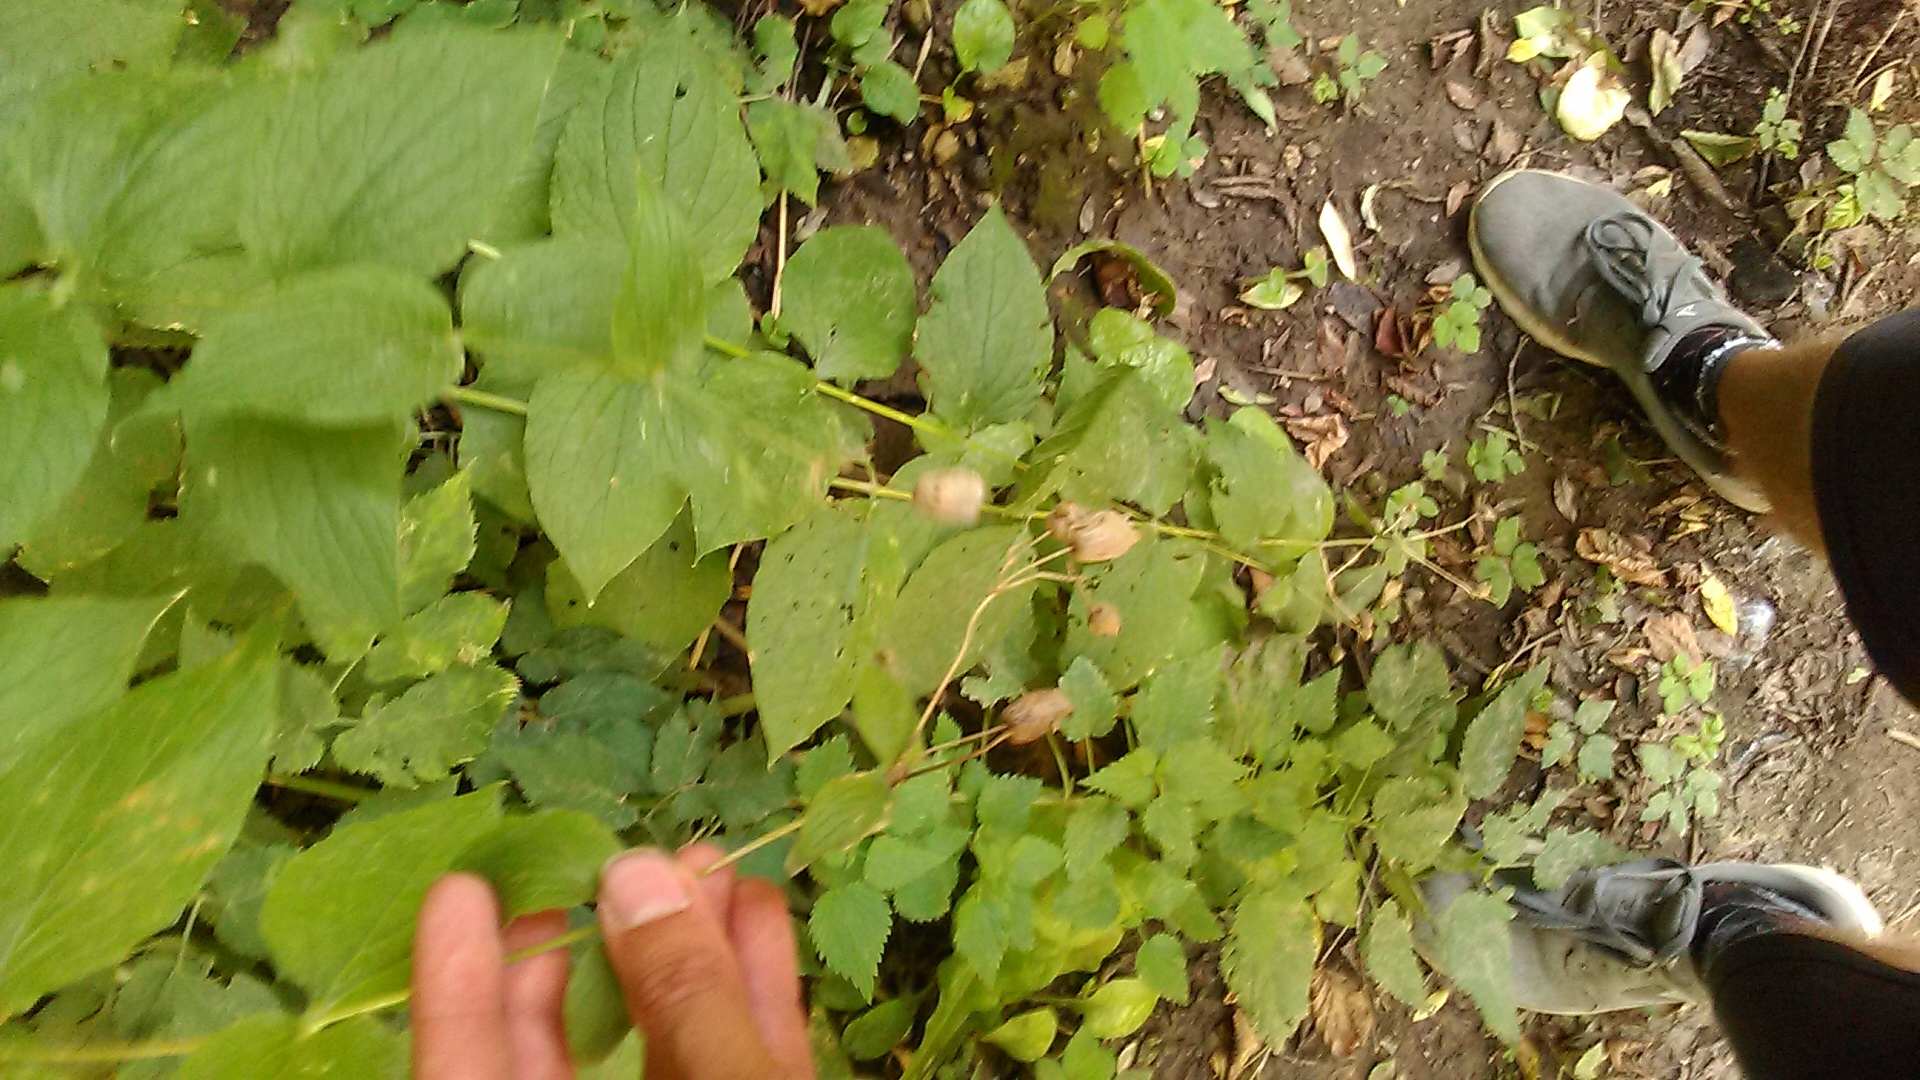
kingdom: Plantae
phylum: Tracheophyta
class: Magnoliopsida
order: Caryophyllales
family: Caryophyllaceae
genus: Silene
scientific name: Silene
